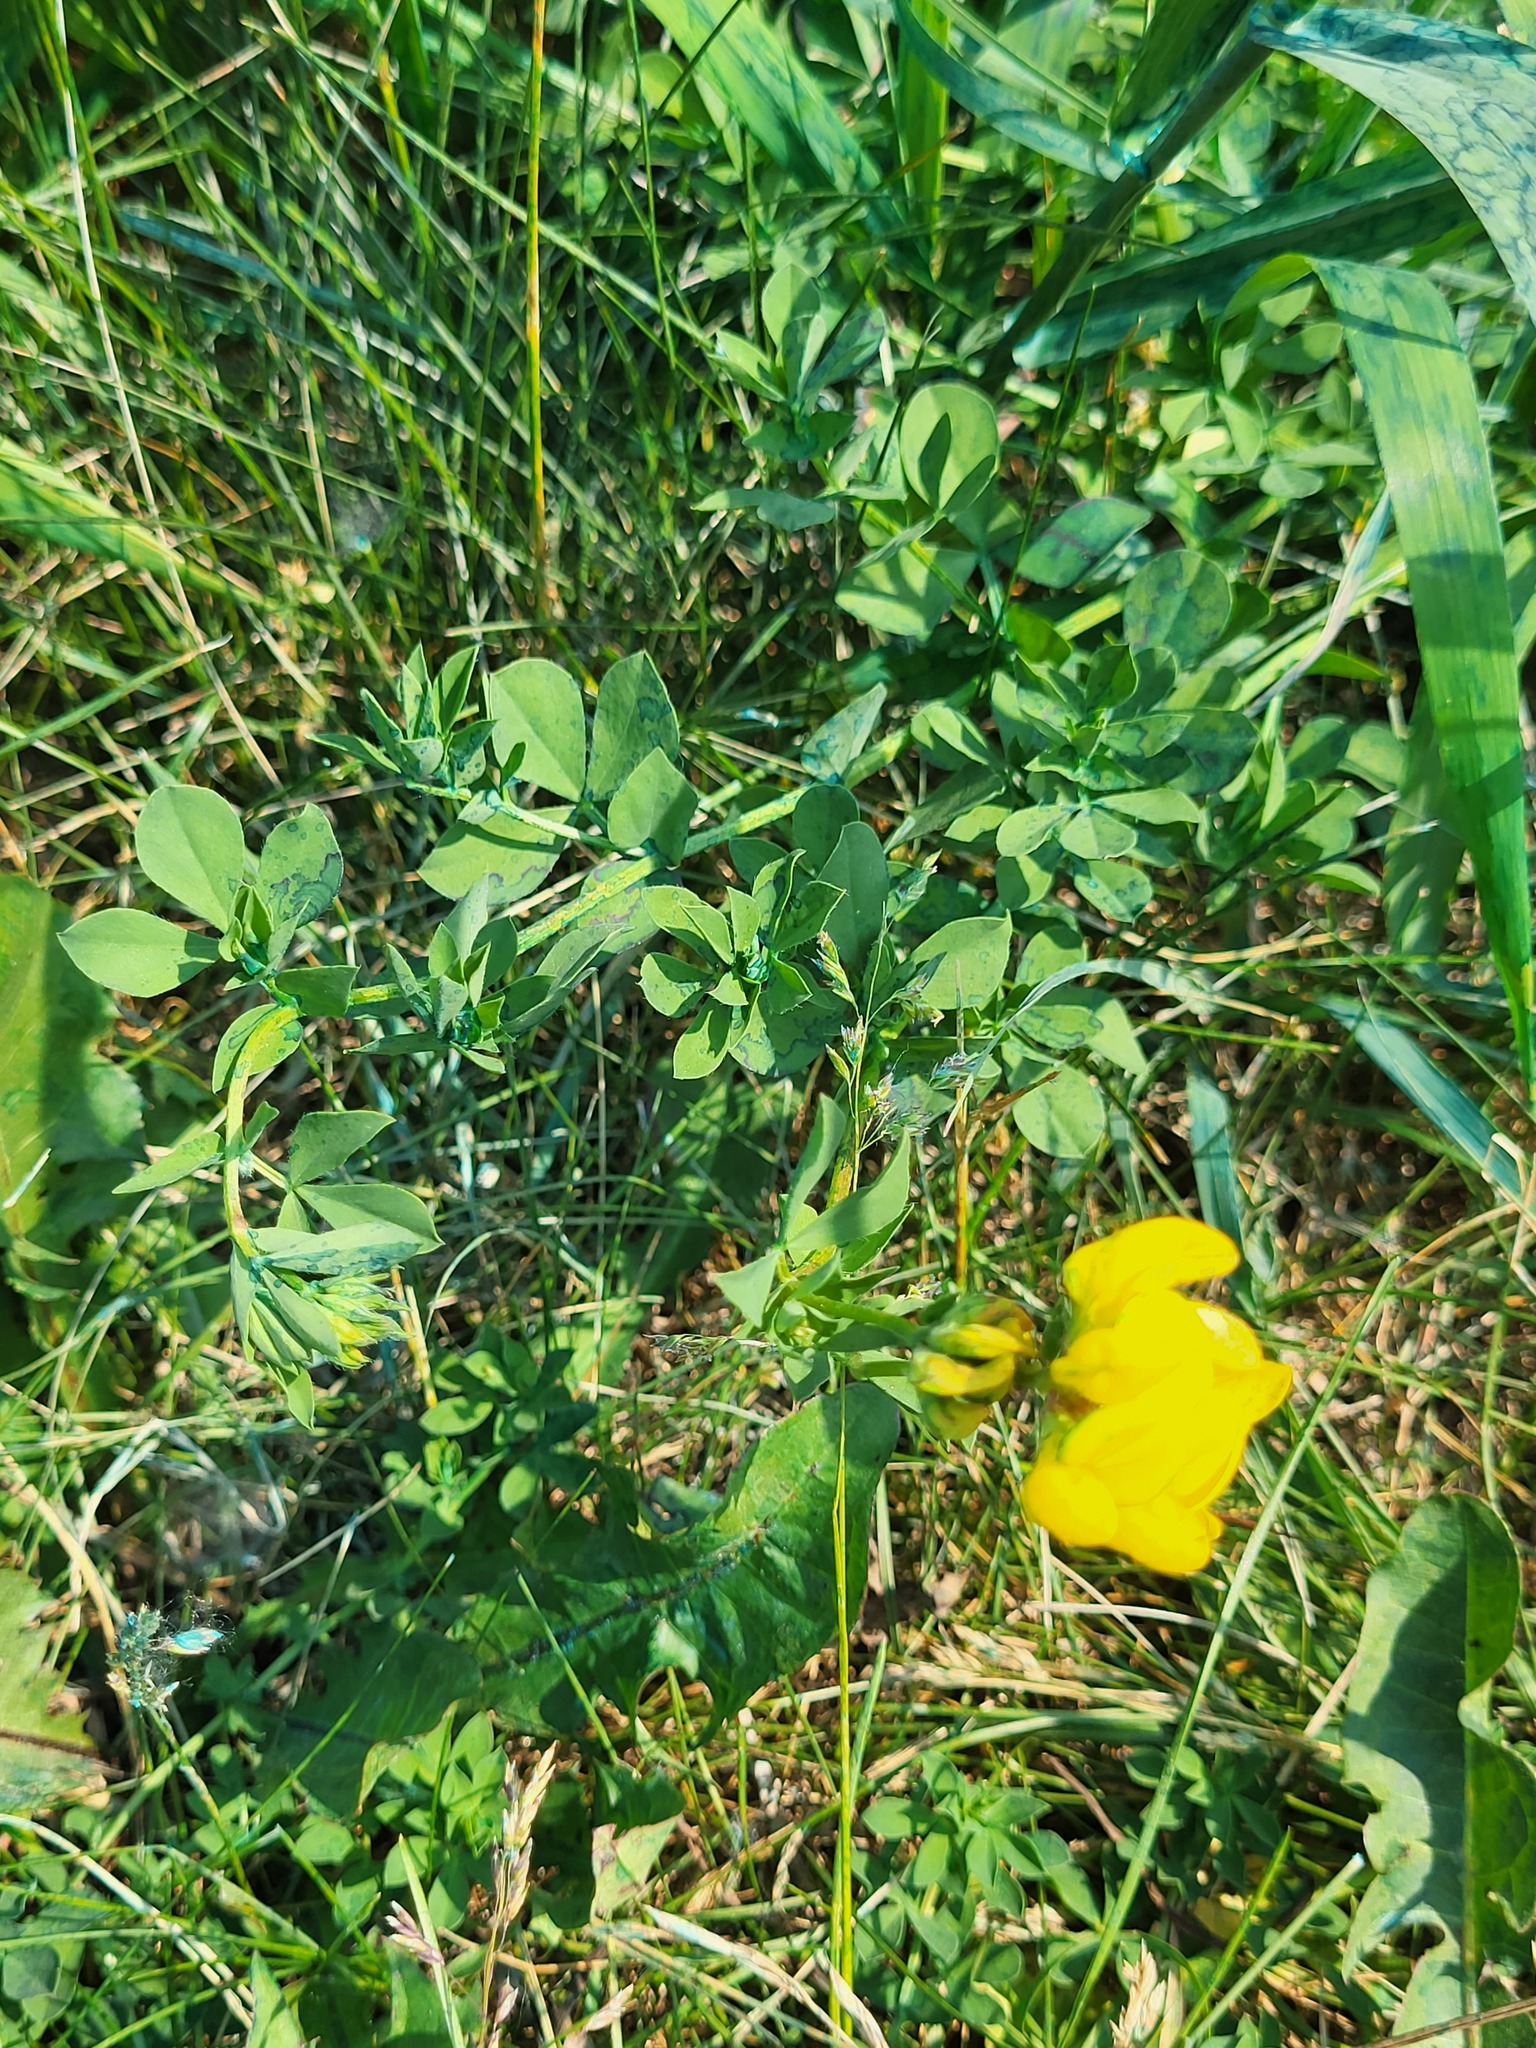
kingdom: Plantae
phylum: Tracheophyta
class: Magnoliopsida
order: Fabales
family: Fabaceae
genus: Lotus
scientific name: Lotus corniculatus
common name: Common bird's-foot-trefoil
